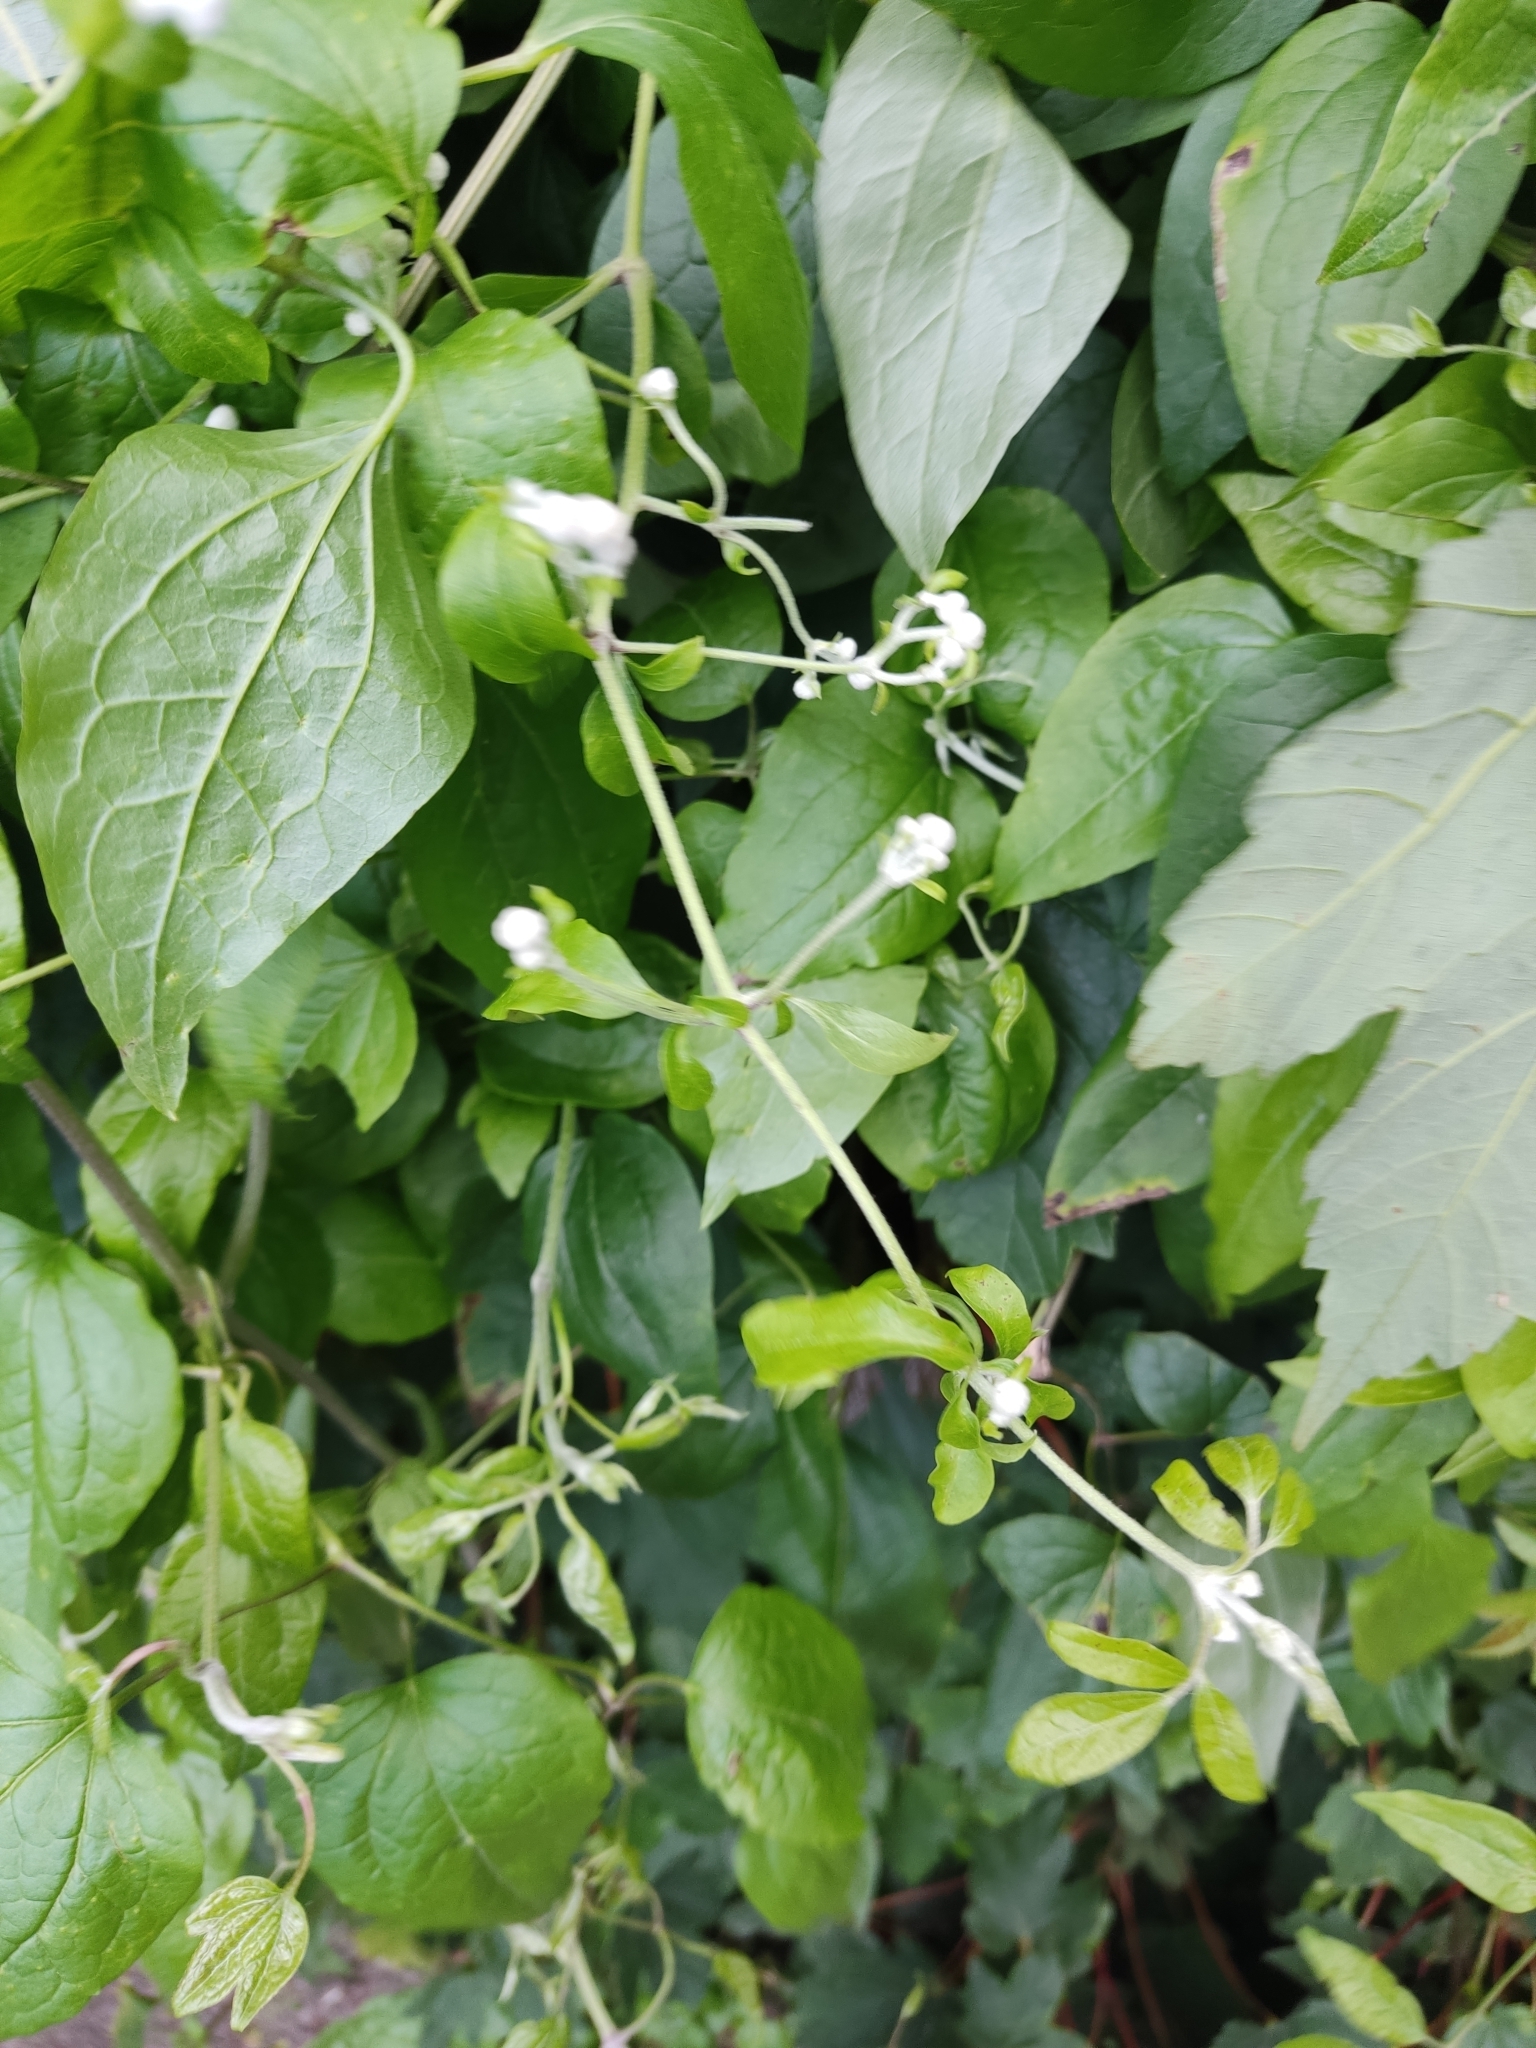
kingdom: Plantae
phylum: Tracheophyta
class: Magnoliopsida
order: Ranunculales
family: Ranunculaceae
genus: Clematis
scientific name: Clematis vitalba
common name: Evergreen clematis
